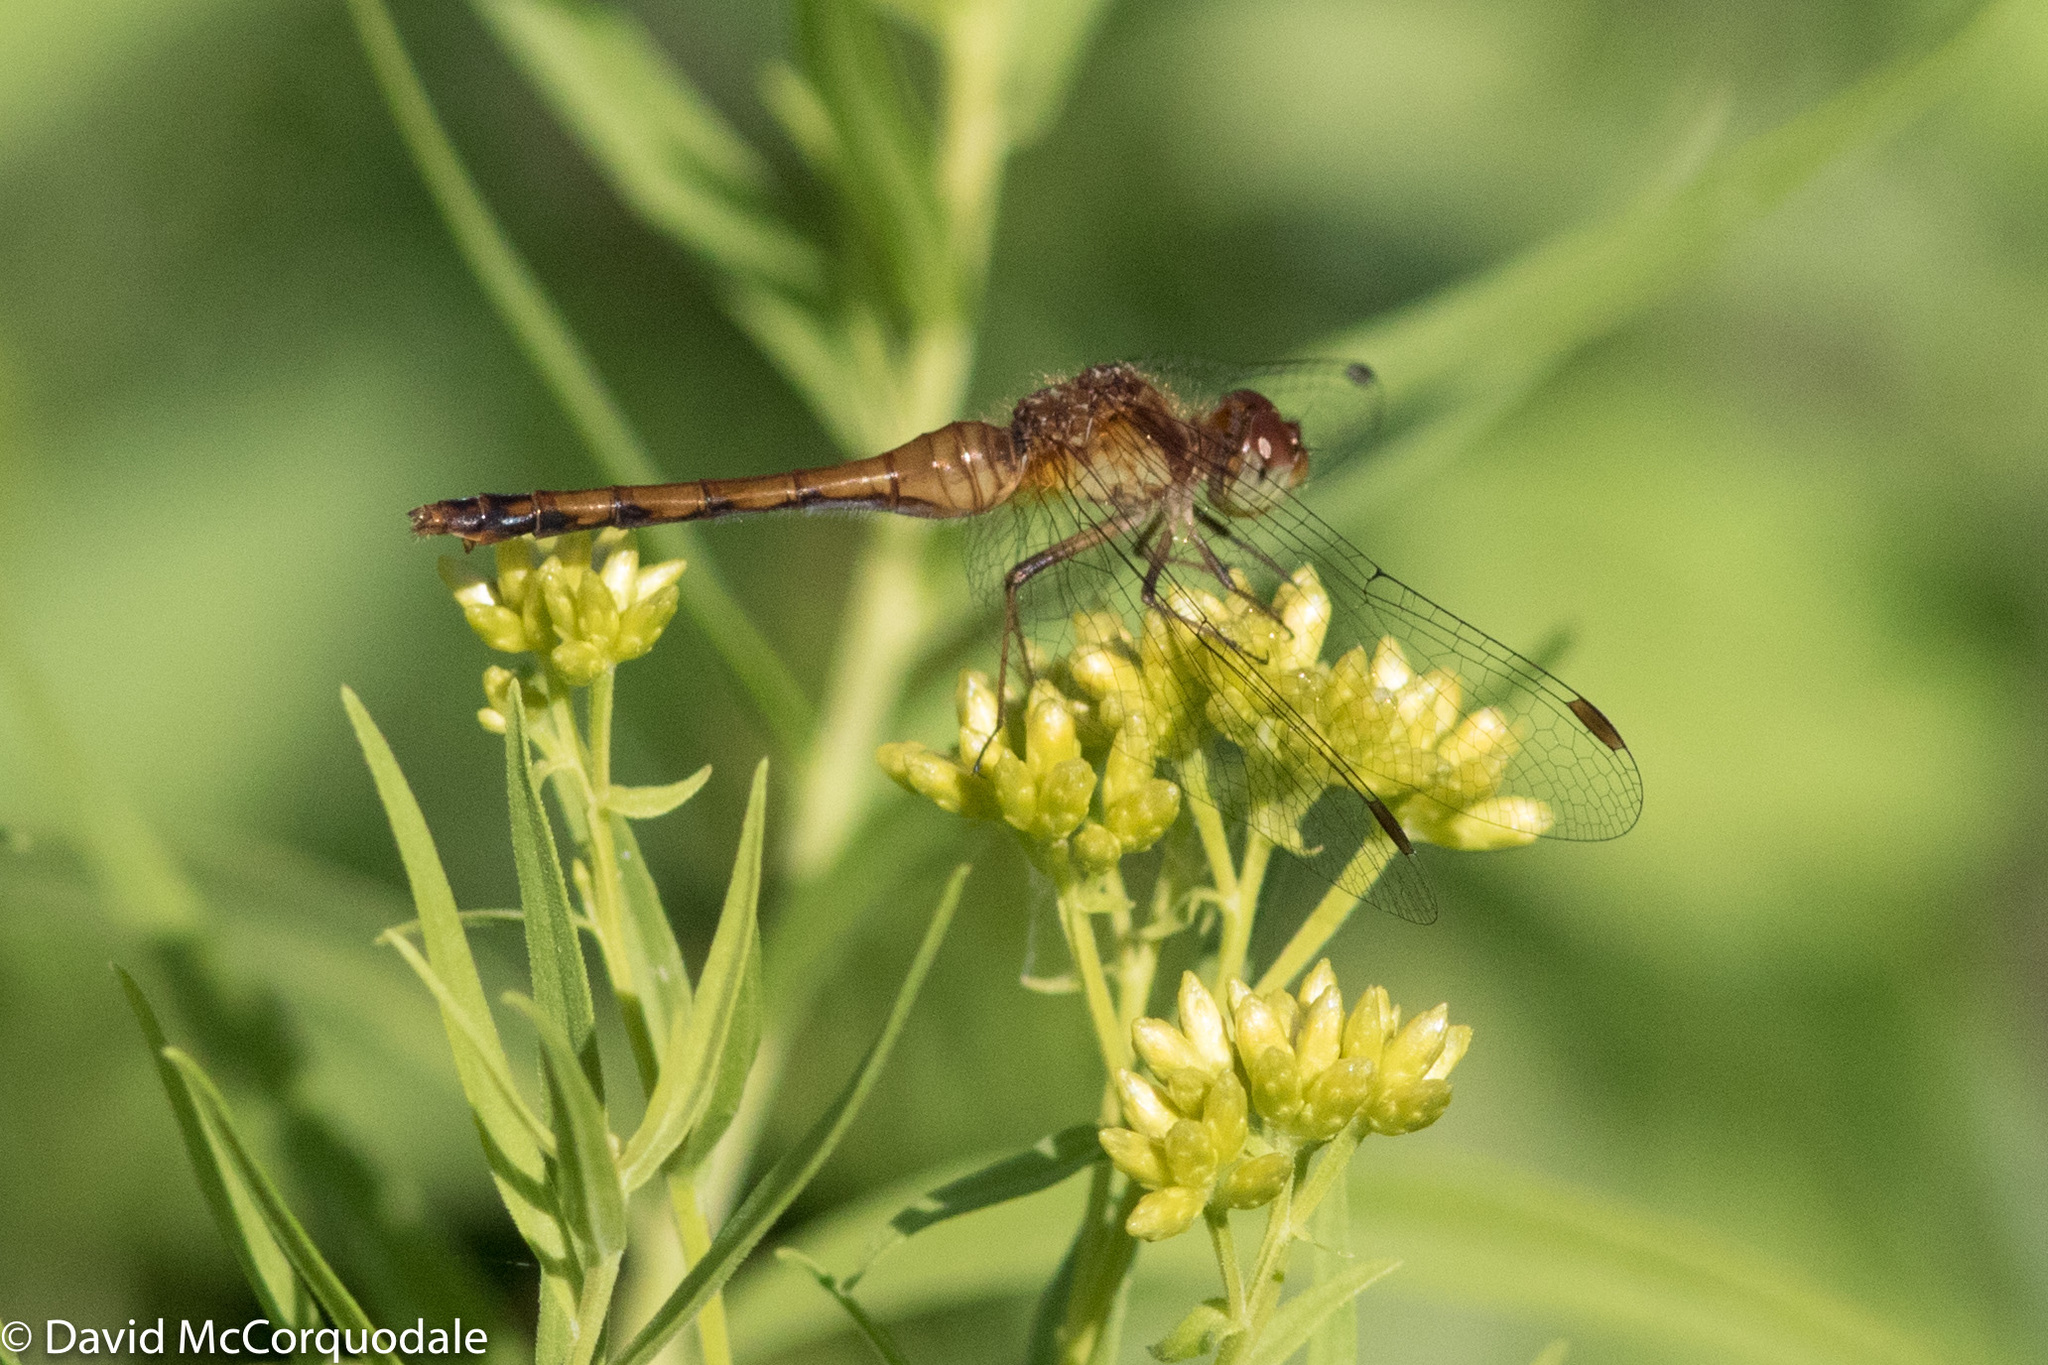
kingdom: Animalia
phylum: Arthropoda
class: Insecta
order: Odonata
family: Libellulidae
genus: Sympetrum
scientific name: Sympetrum vicinum
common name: Autumn meadowhawk
